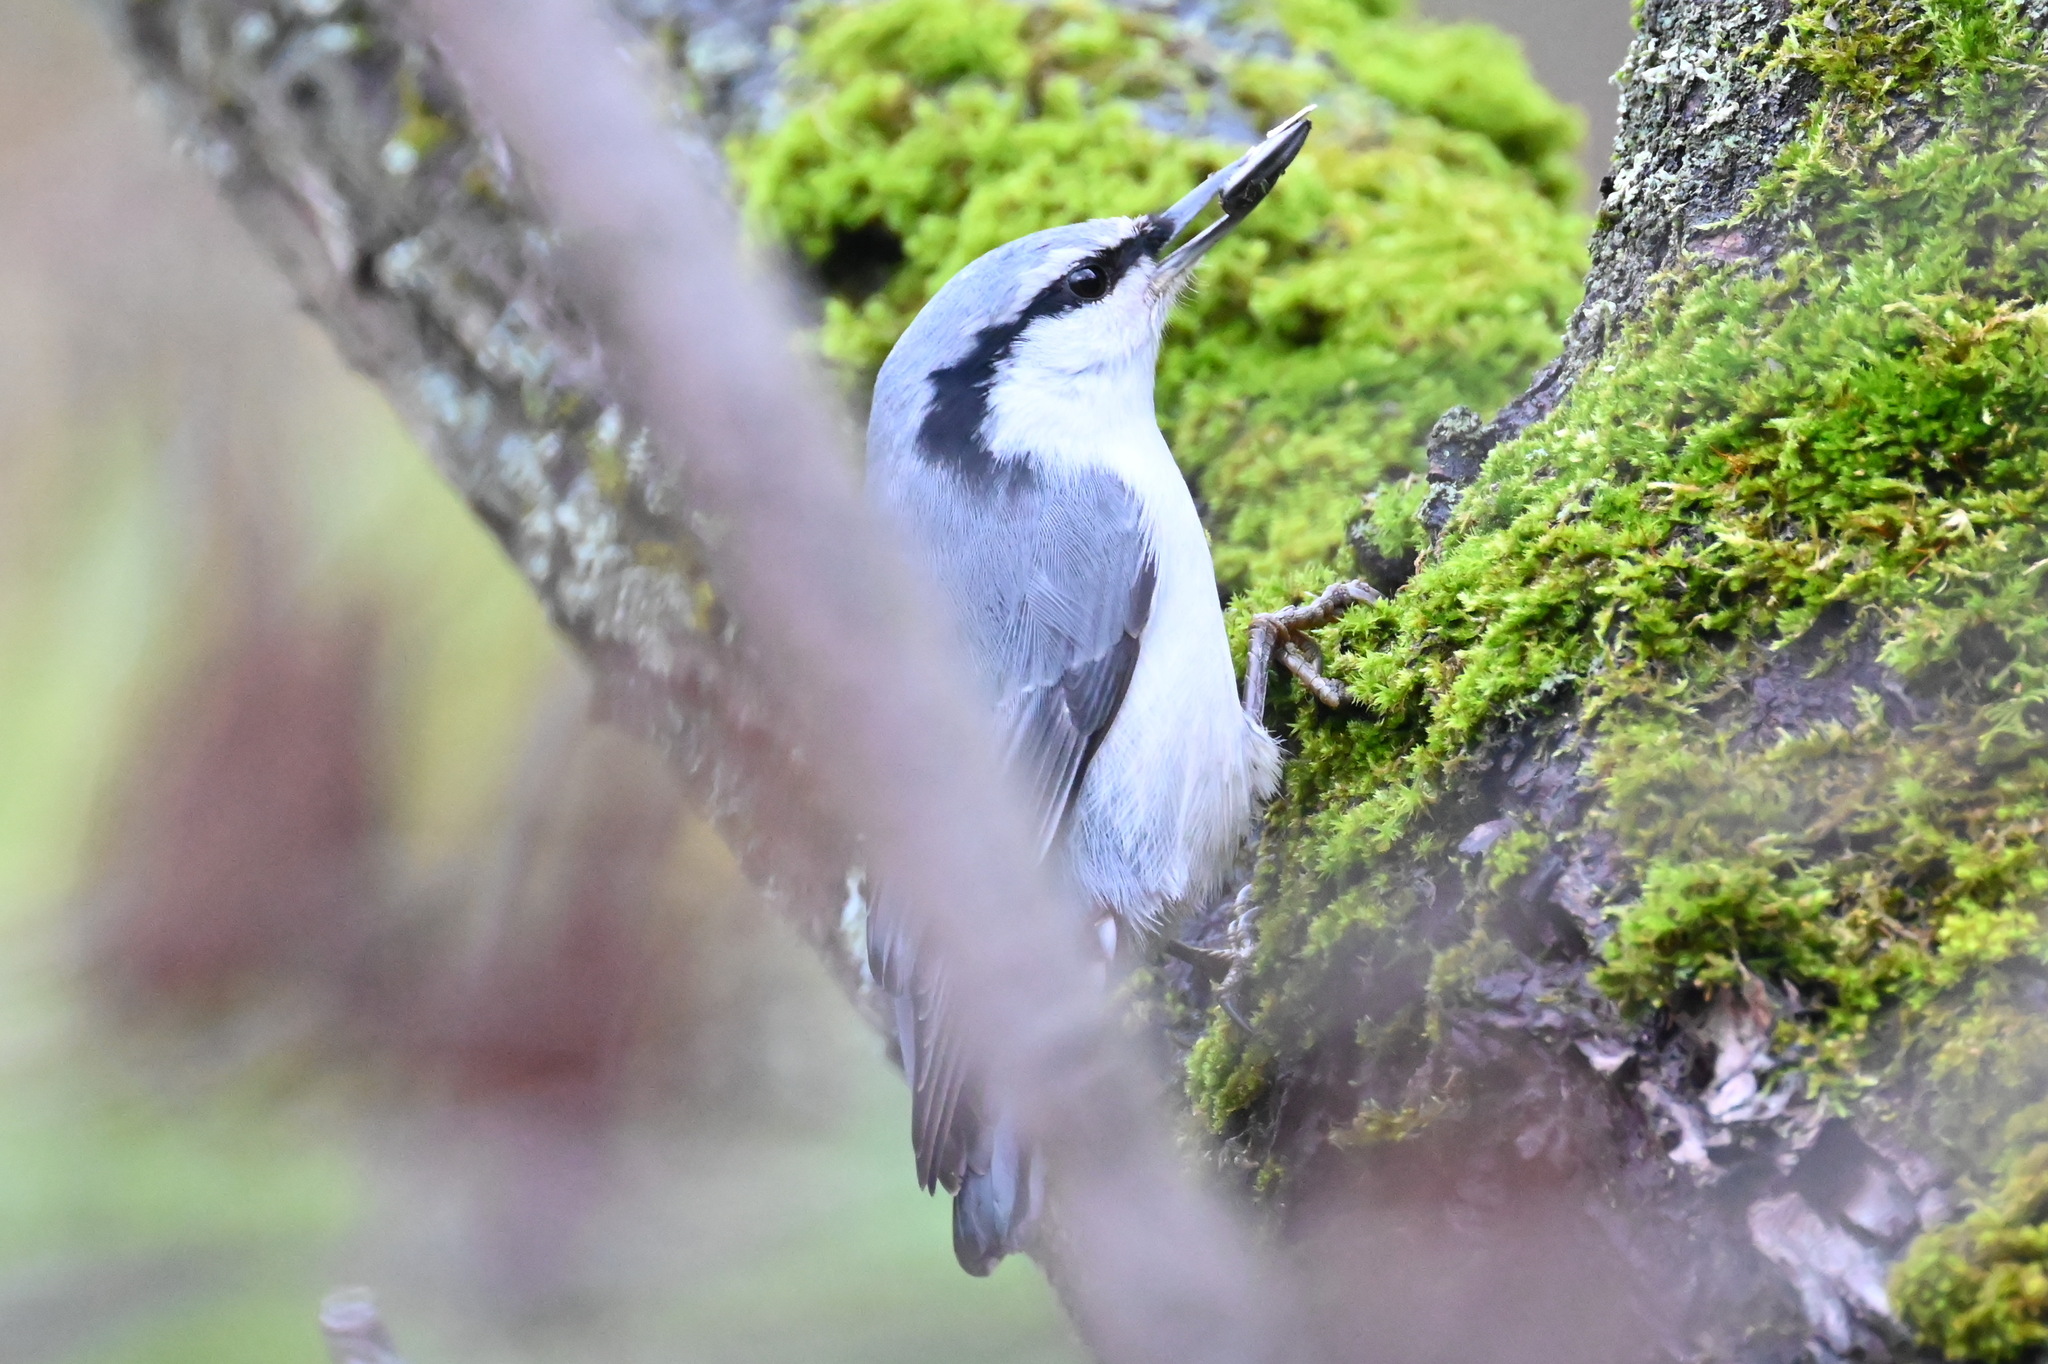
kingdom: Animalia
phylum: Chordata
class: Aves
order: Passeriformes
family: Sittidae
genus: Sitta
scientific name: Sitta europaea
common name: Eurasian nuthatch
